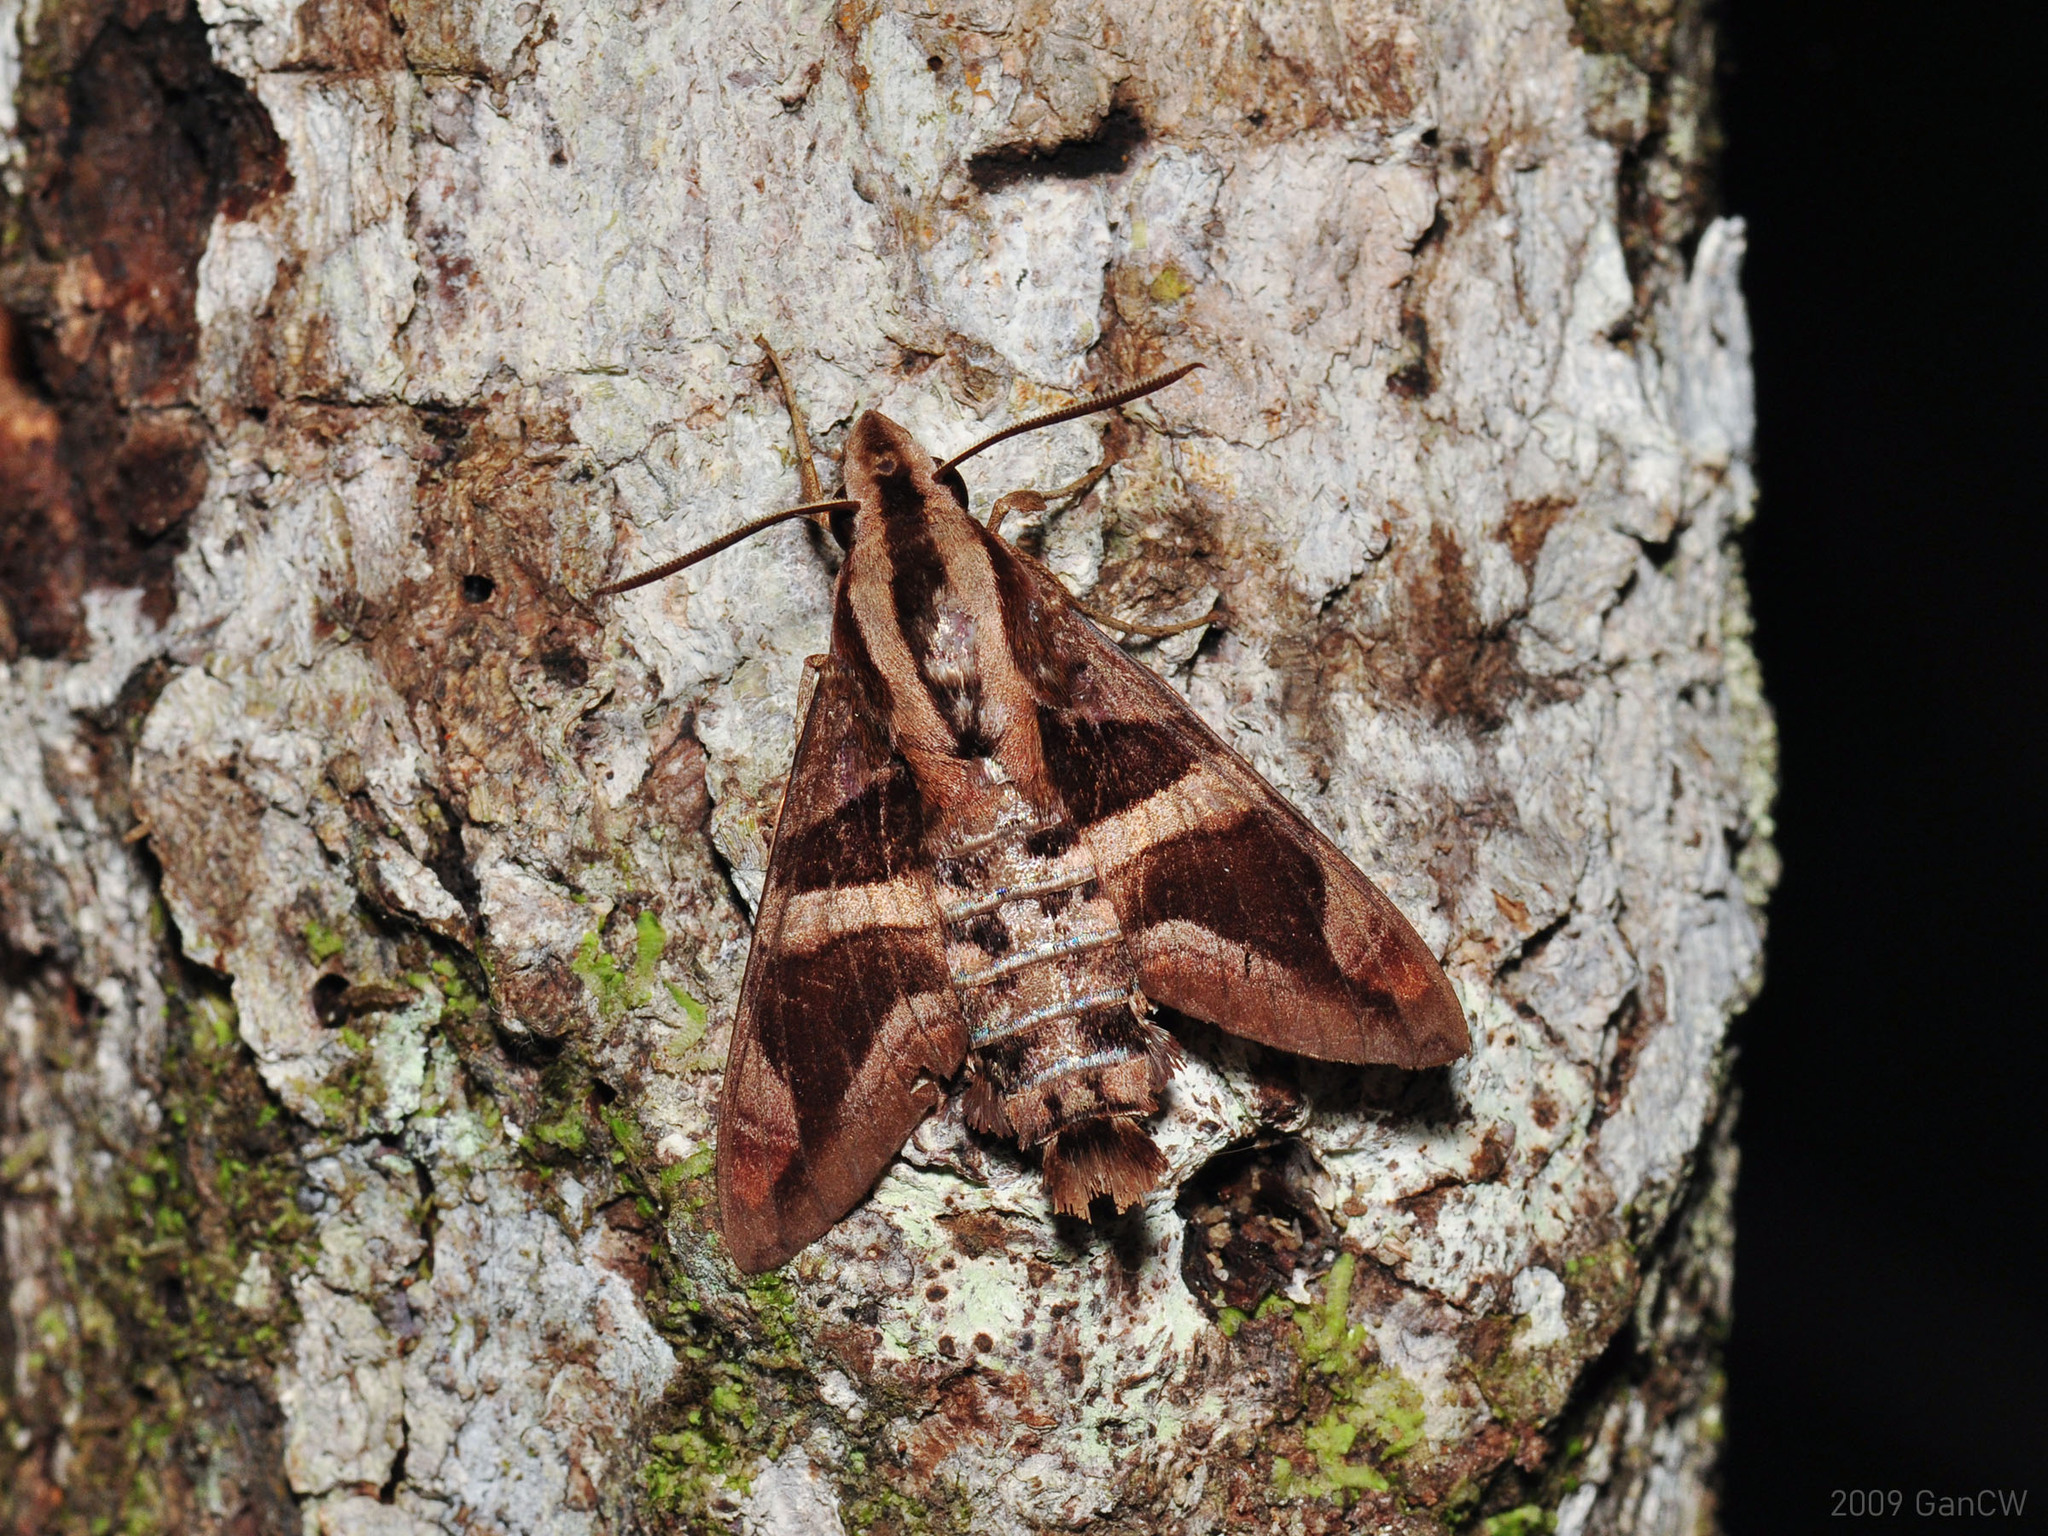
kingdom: Animalia
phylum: Arthropoda
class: Insecta
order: Lepidoptera
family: Sphingidae
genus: Macroglossum
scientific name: Macroglossum mitchellii
